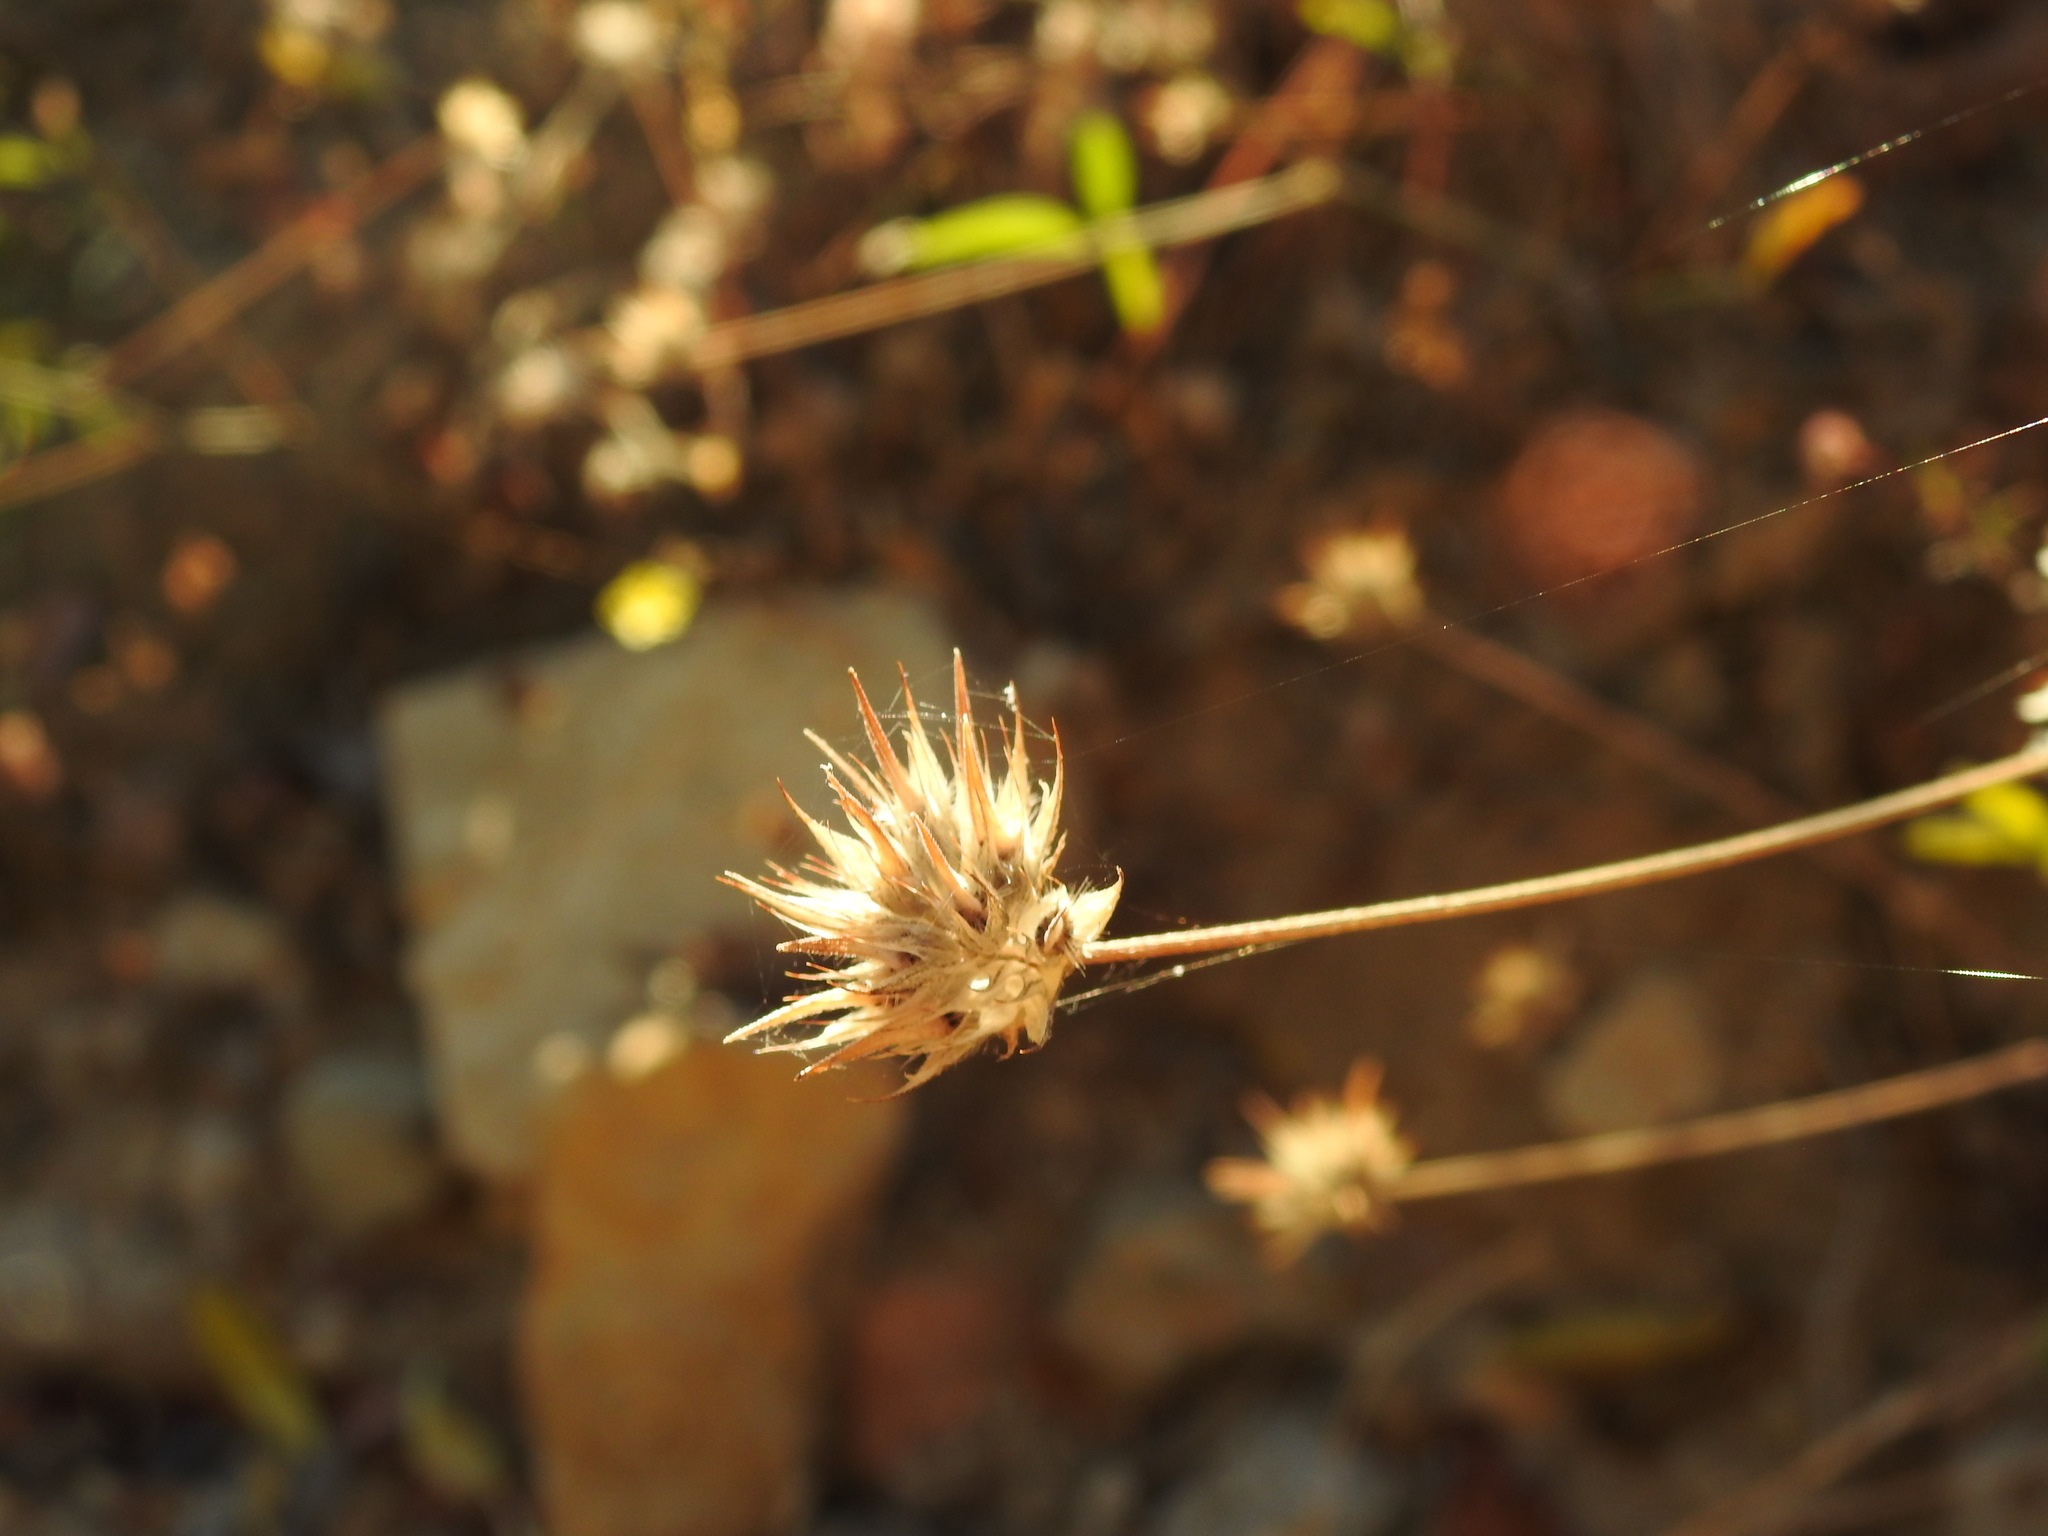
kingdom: Plantae
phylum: Tracheophyta
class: Magnoliopsida
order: Fabales
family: Fabaceae
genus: Bituminaria
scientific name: Bituminaria bituminosa
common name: Arabian pea
